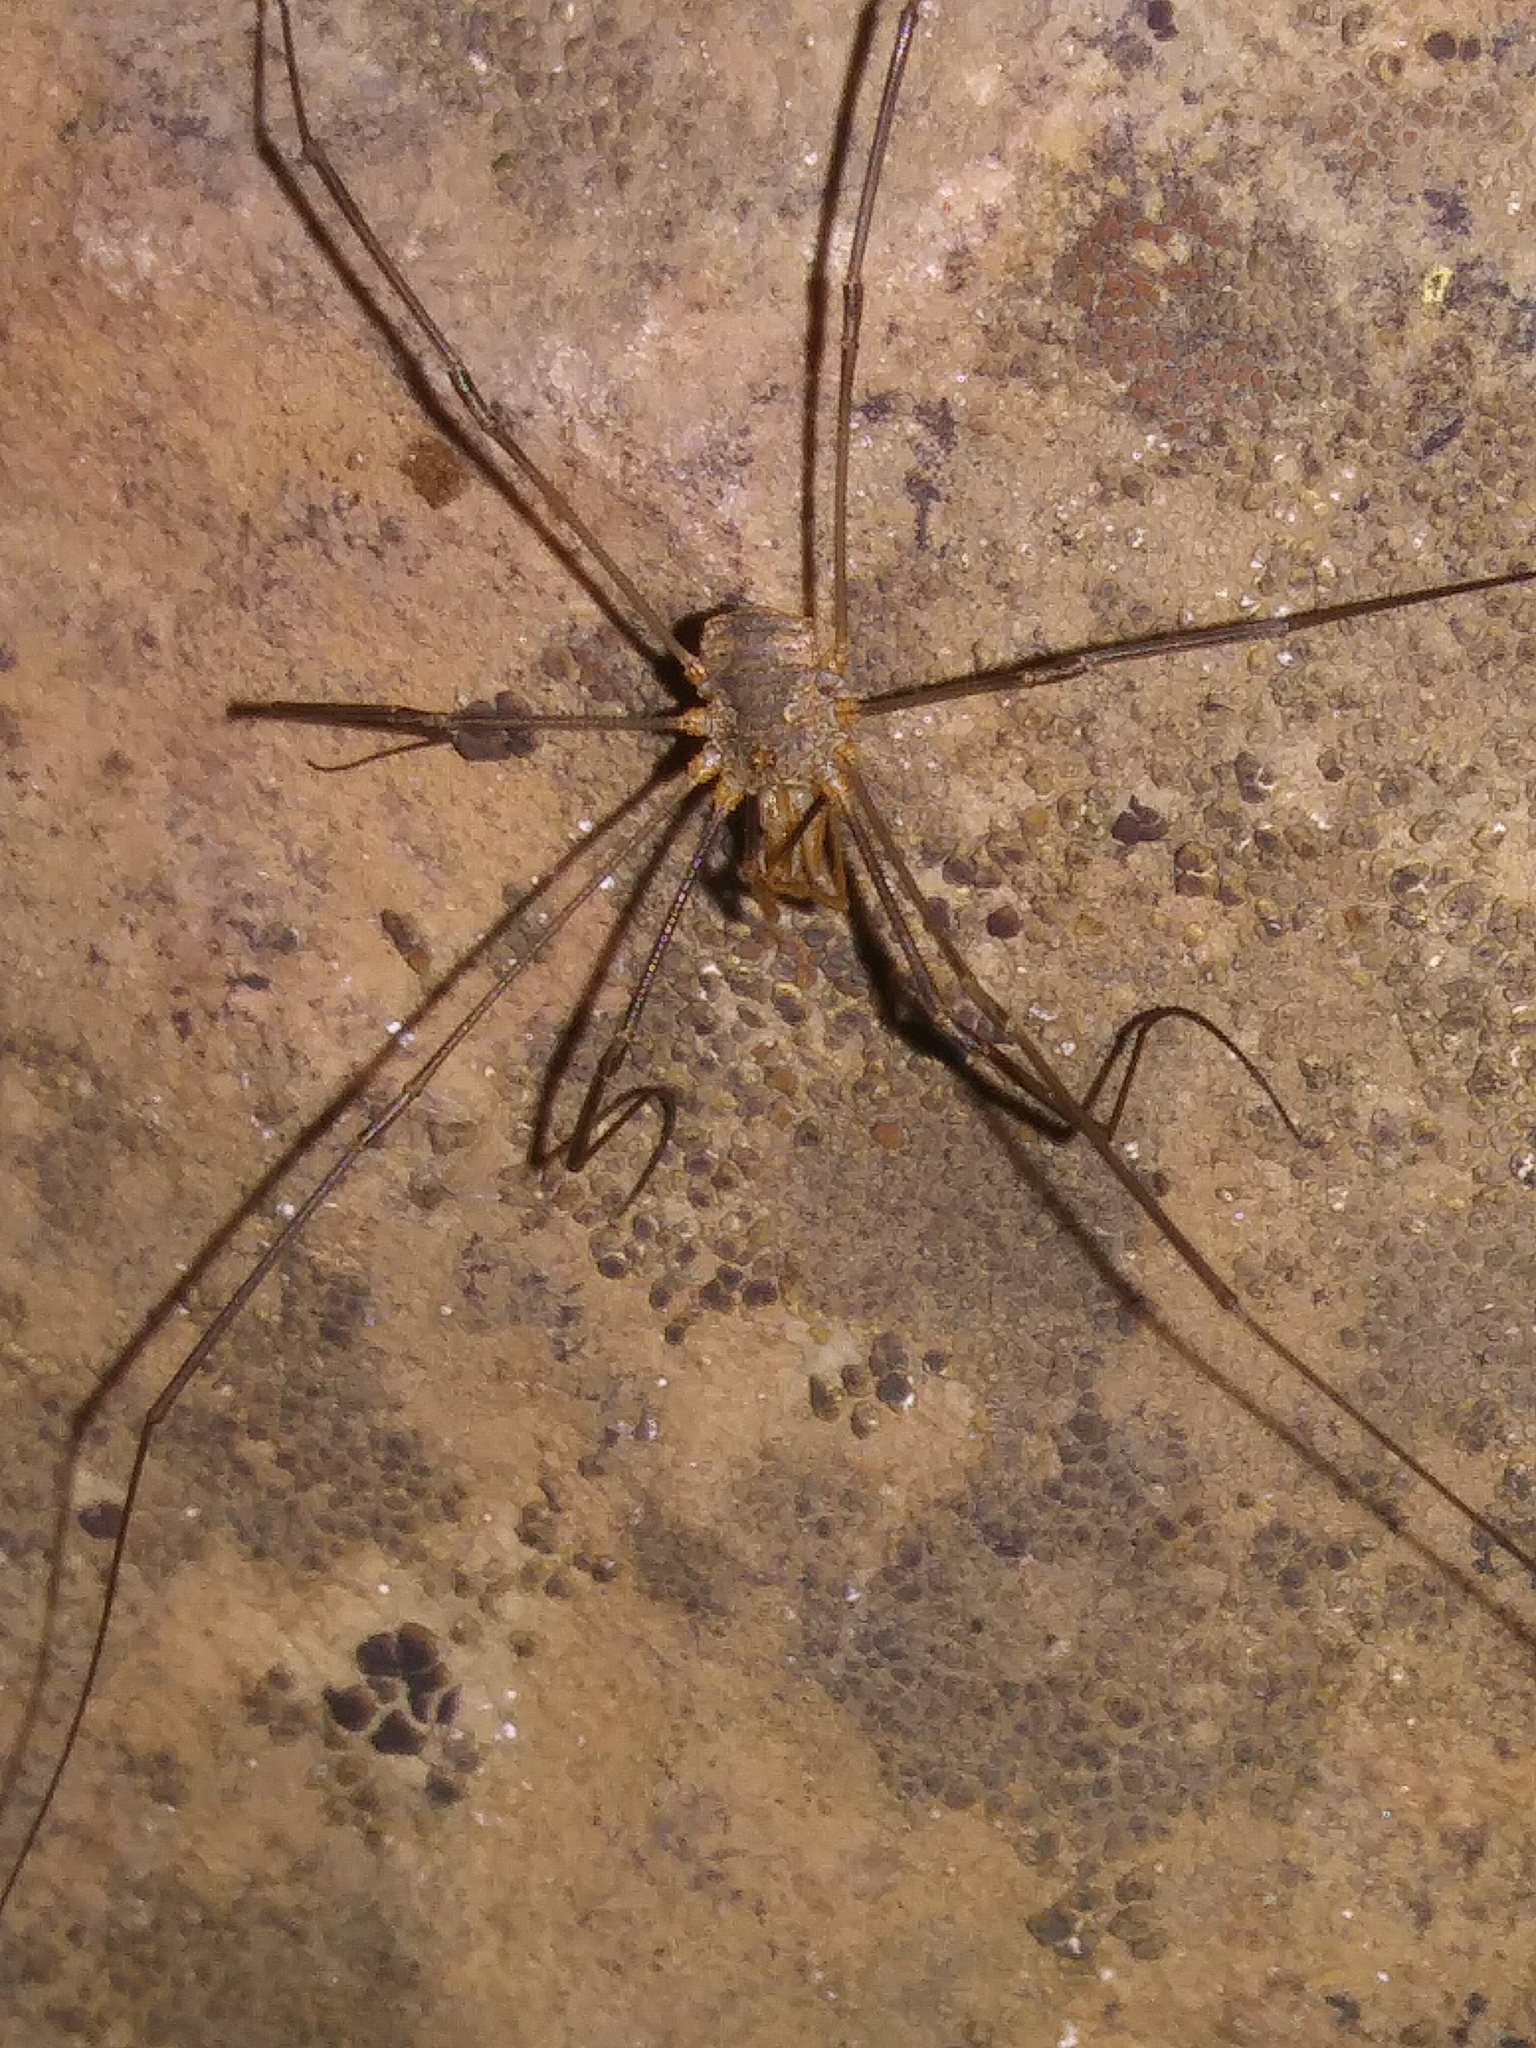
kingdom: Animalia
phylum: Arthropoda
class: Arachnida
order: Opiliones
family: Phalangiidae
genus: Phalangium
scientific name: Phalangium opilio
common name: Daddy longleg
